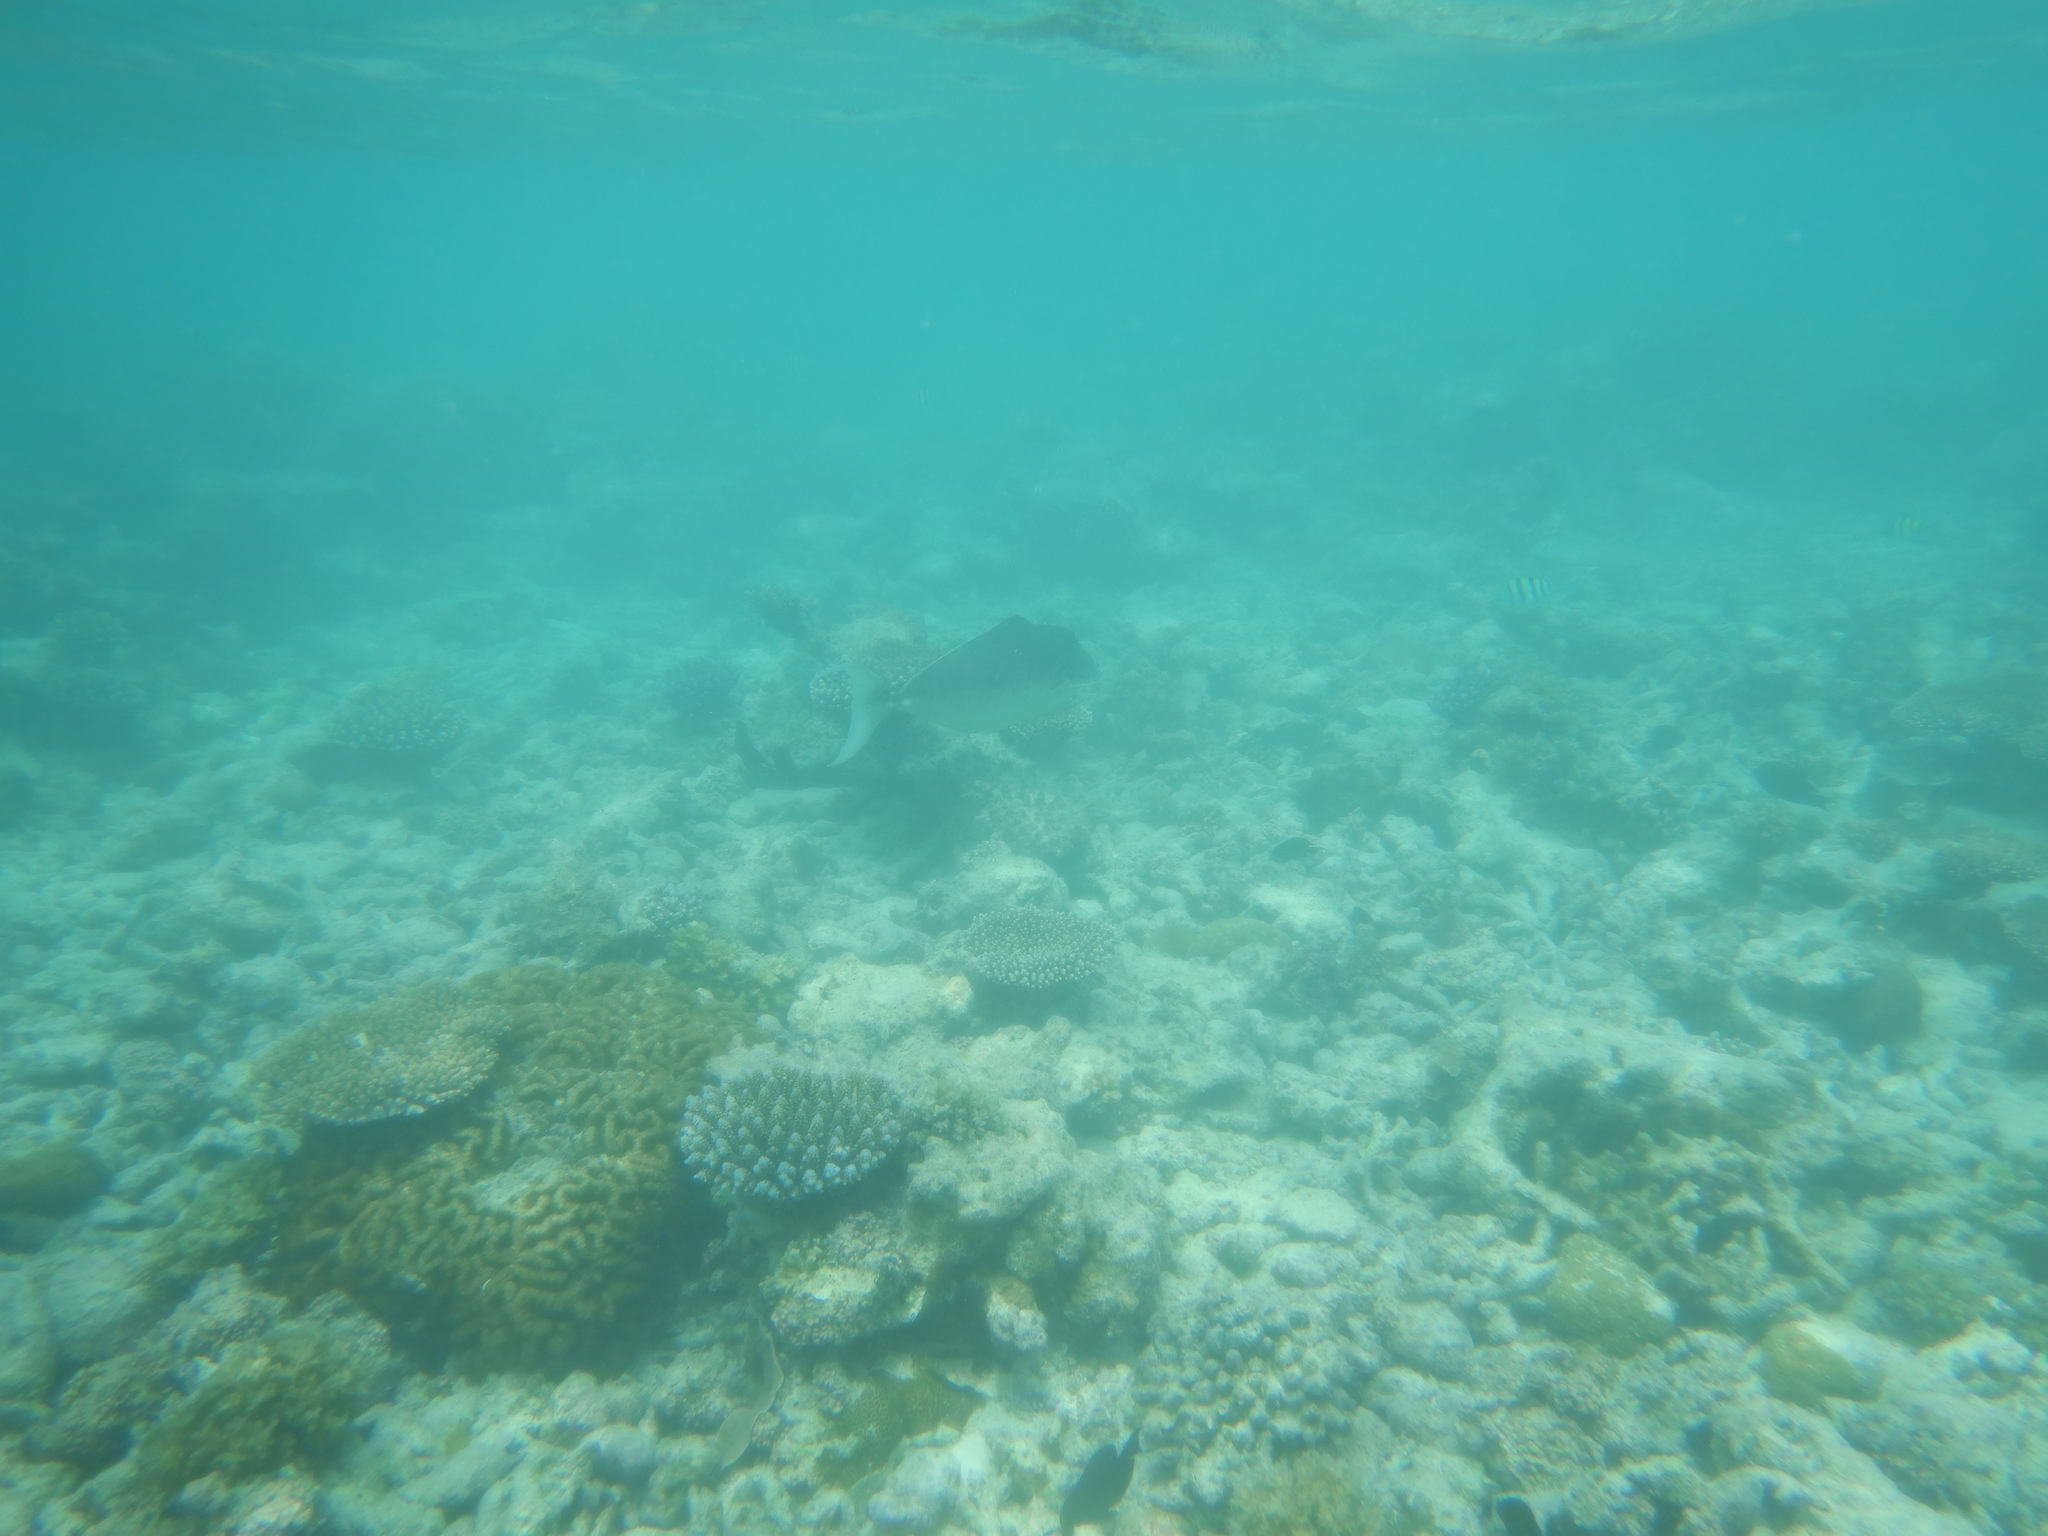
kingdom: Animalia
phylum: Chordata
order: Perciformes
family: Acanthuridae
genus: Naso
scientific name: Naso brachycentron
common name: Humpback unicornfish
